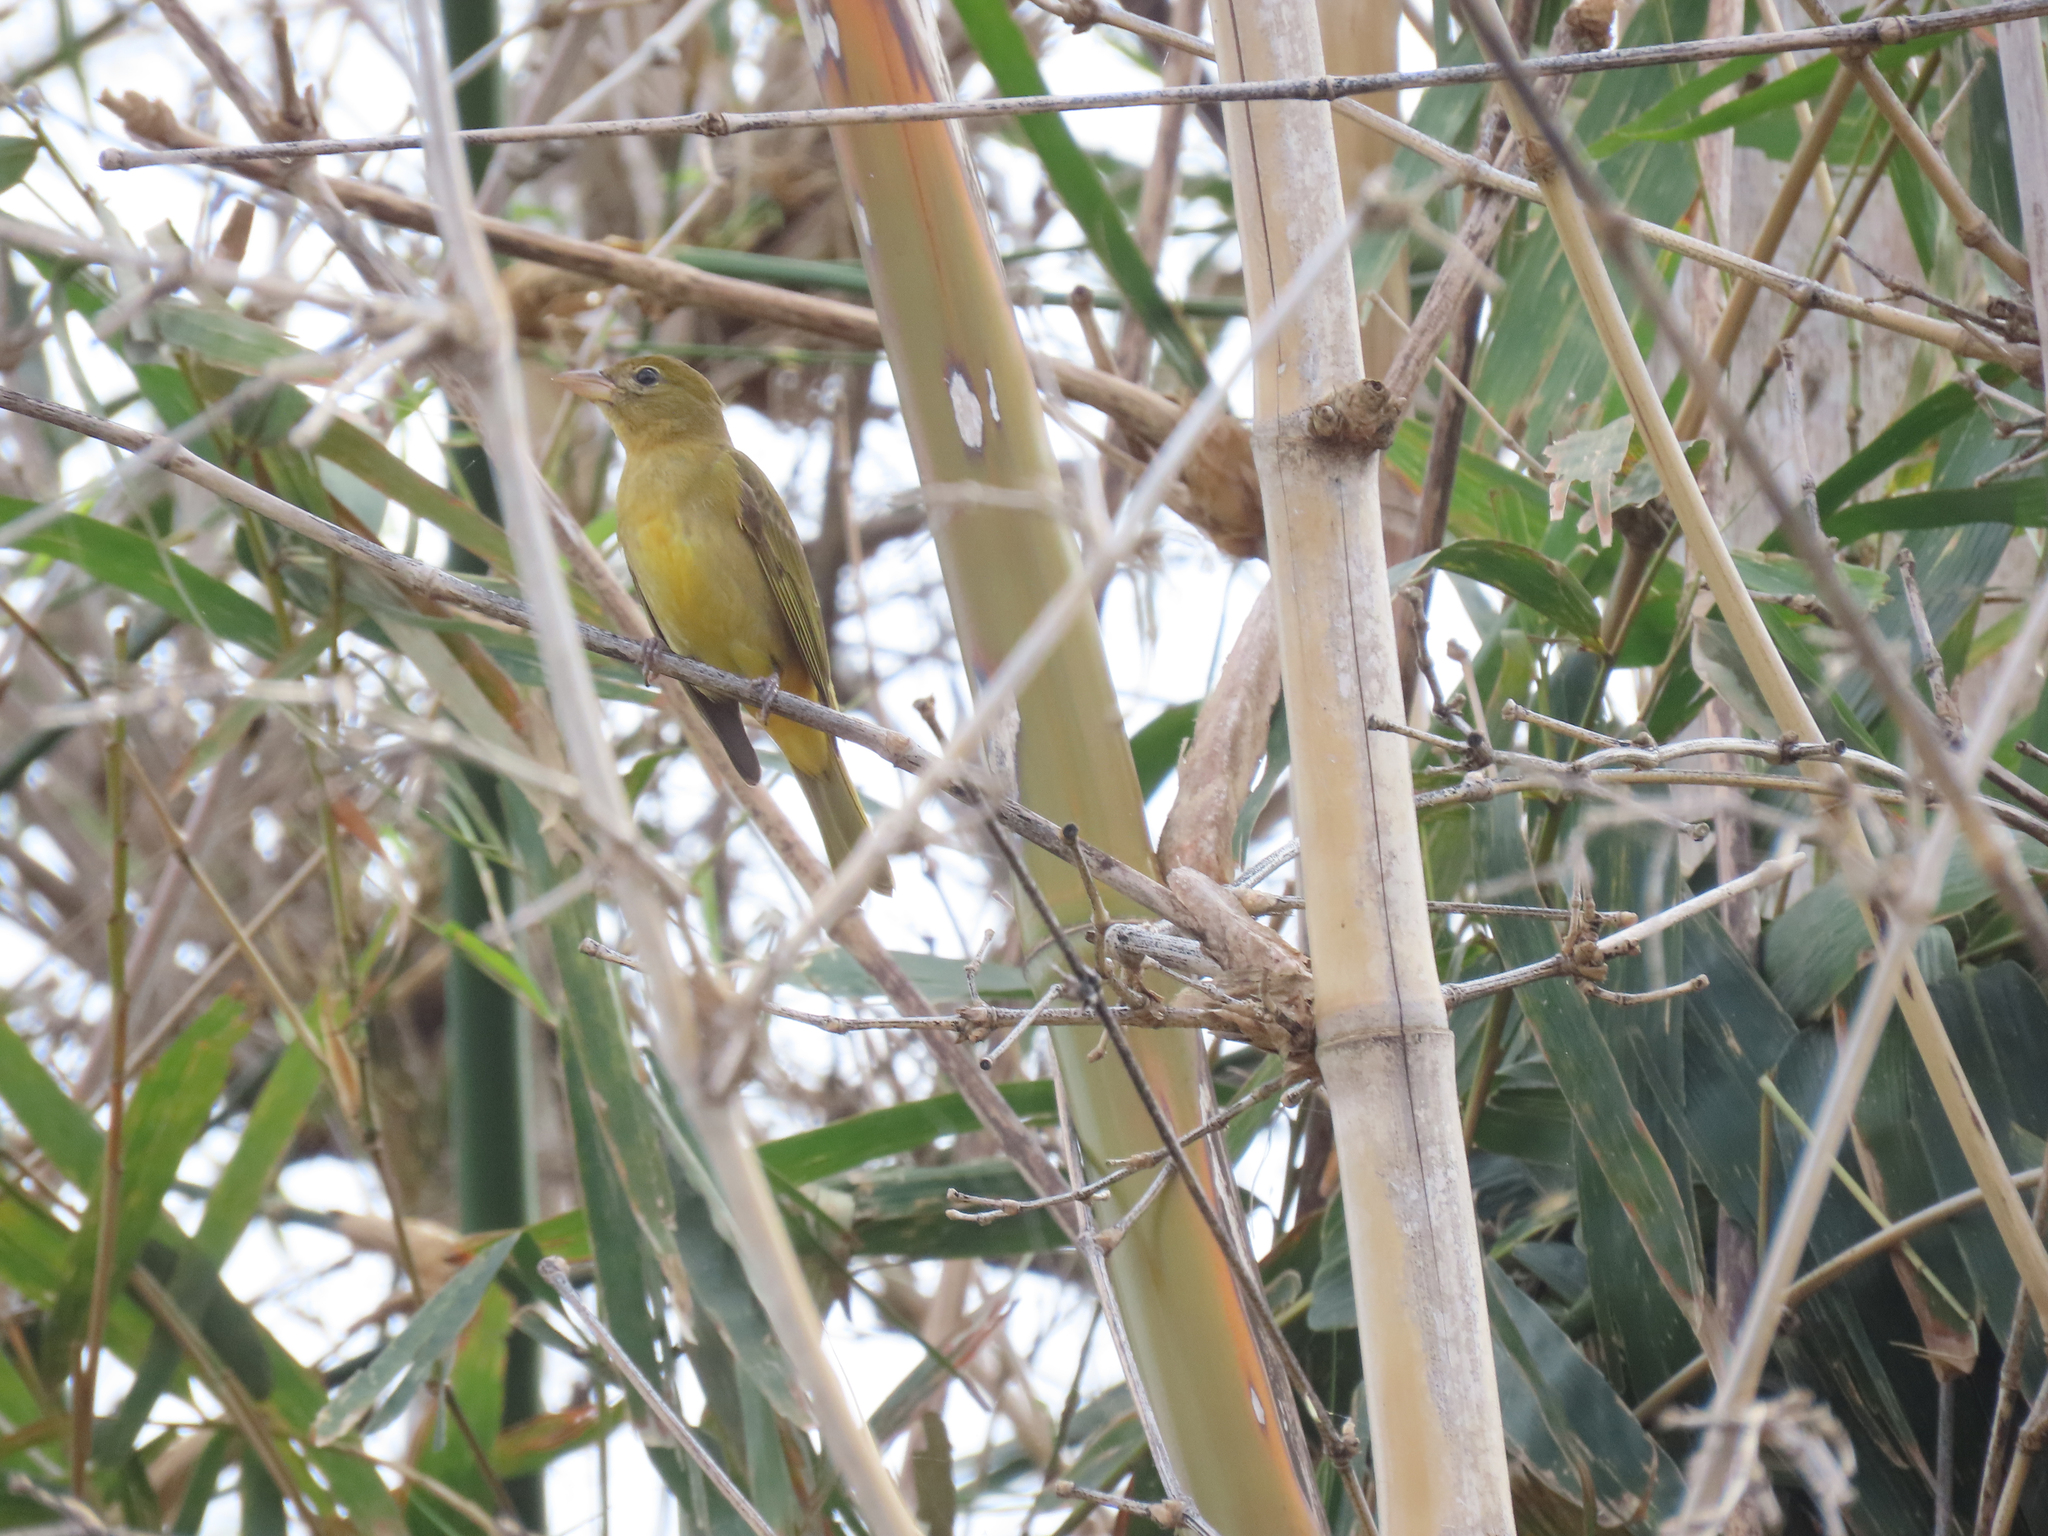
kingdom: Animalia
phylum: Chordata
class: Aves
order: Passeriformes
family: Cardinalidae
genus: Piranga
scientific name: Piranga rubra
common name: Summer tanager
